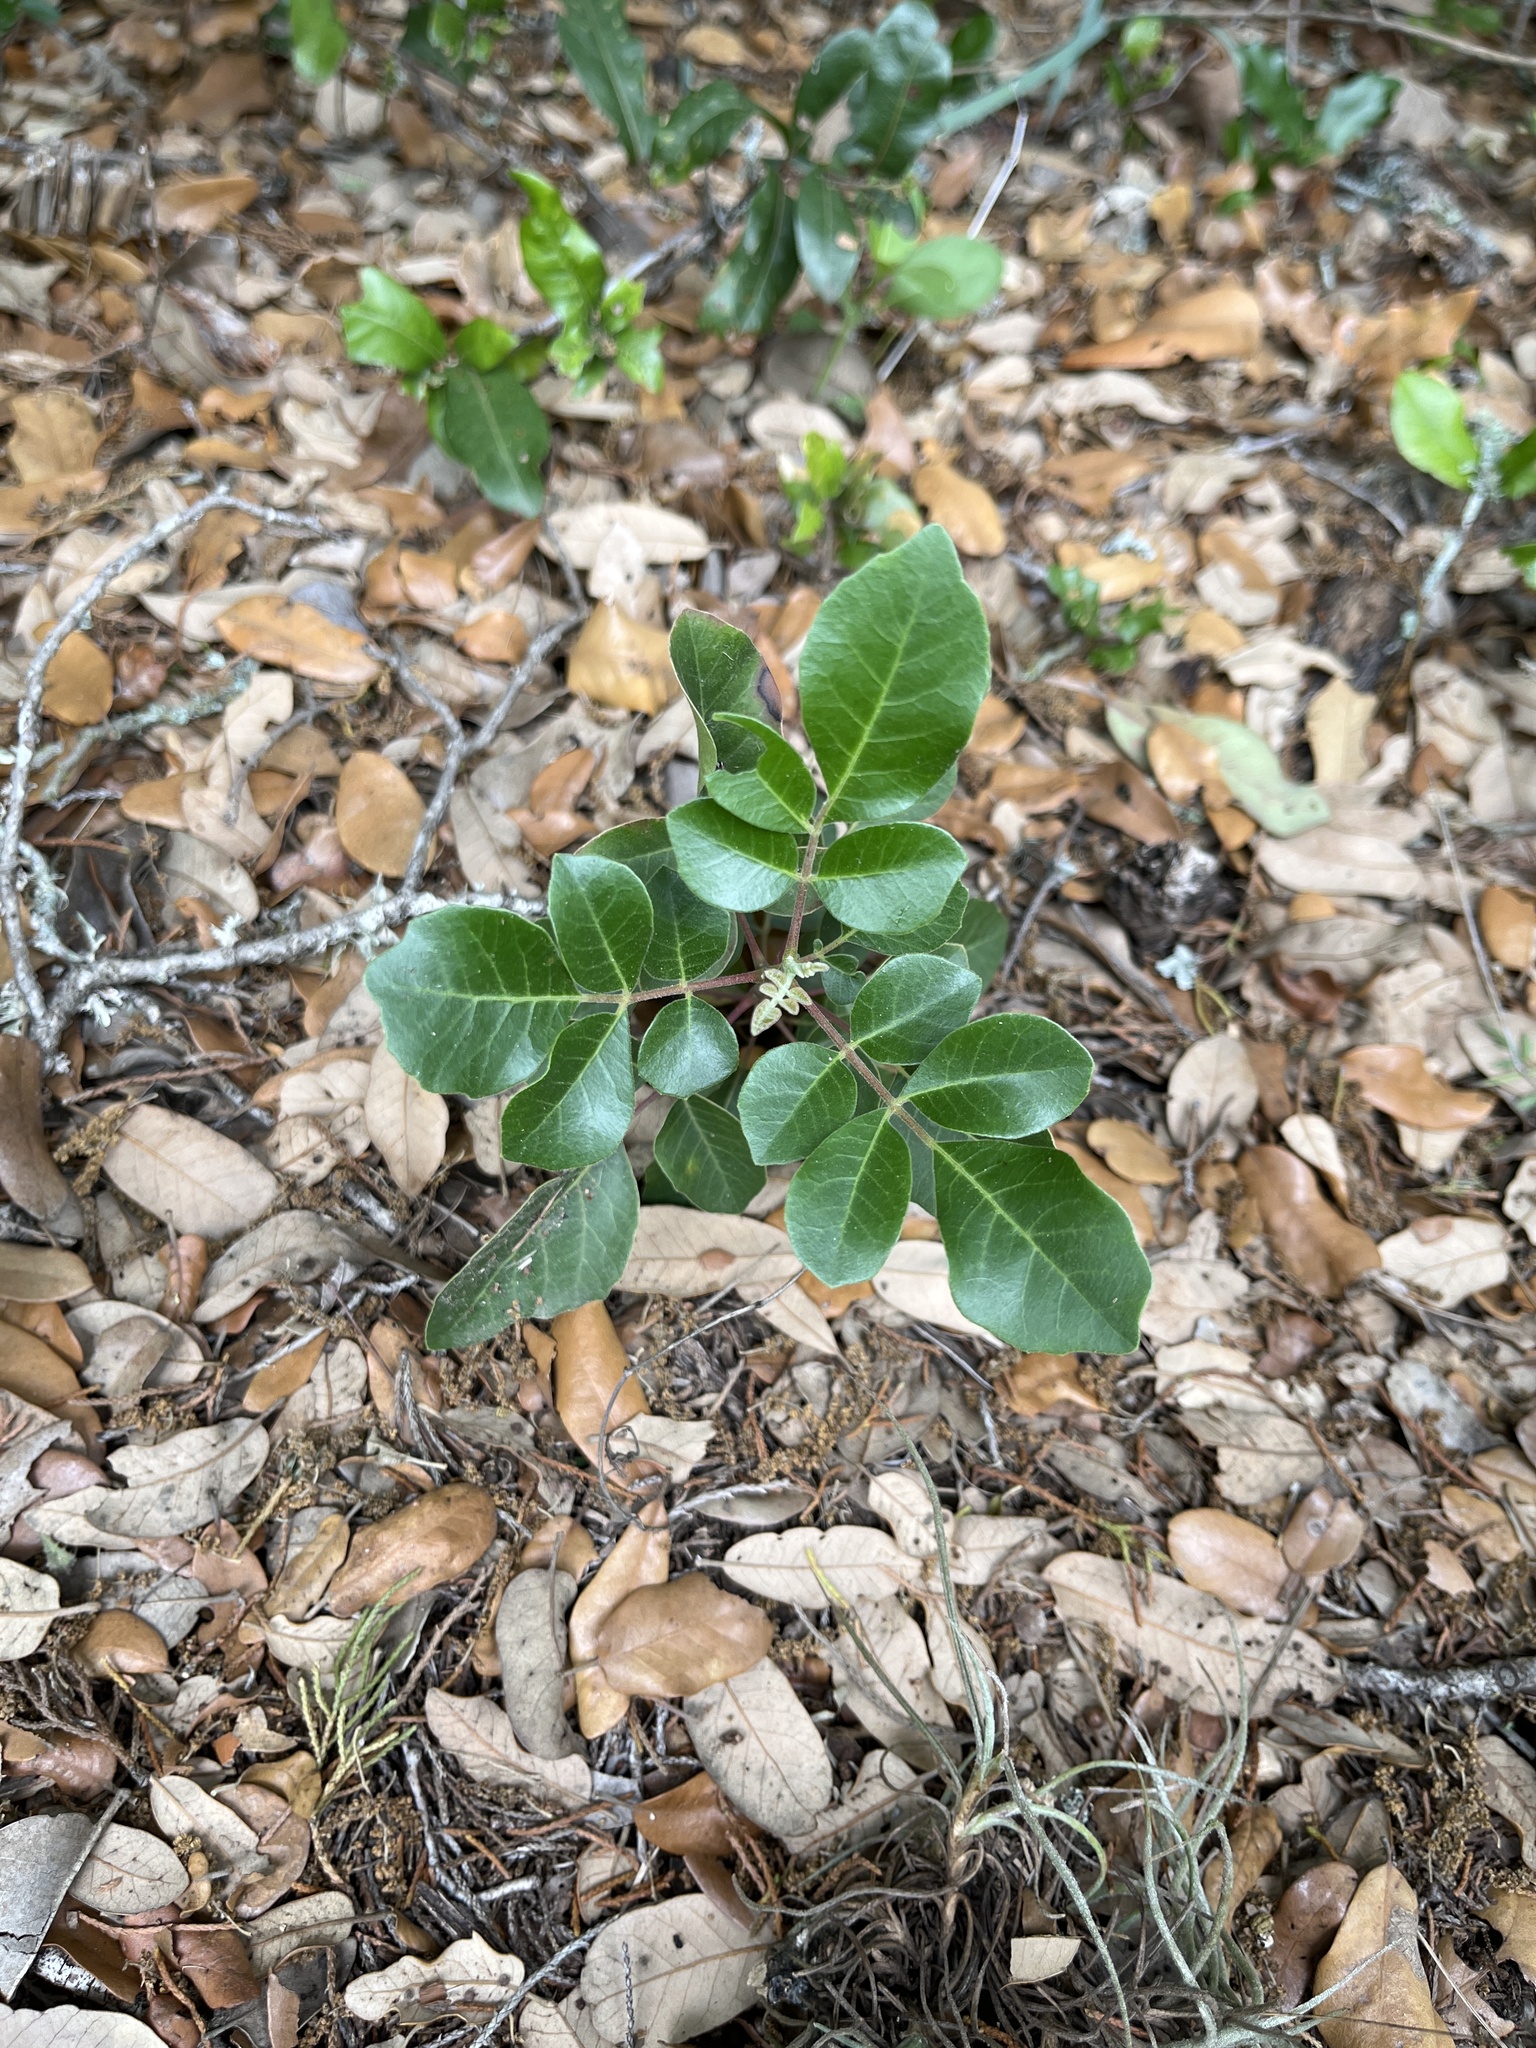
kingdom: Plantae
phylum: Tracheophyta
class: Magnoliopsida
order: Sapindales
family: Anacardiaceae
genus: Rhus
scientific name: Rhus virens
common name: Evergreen sumac
